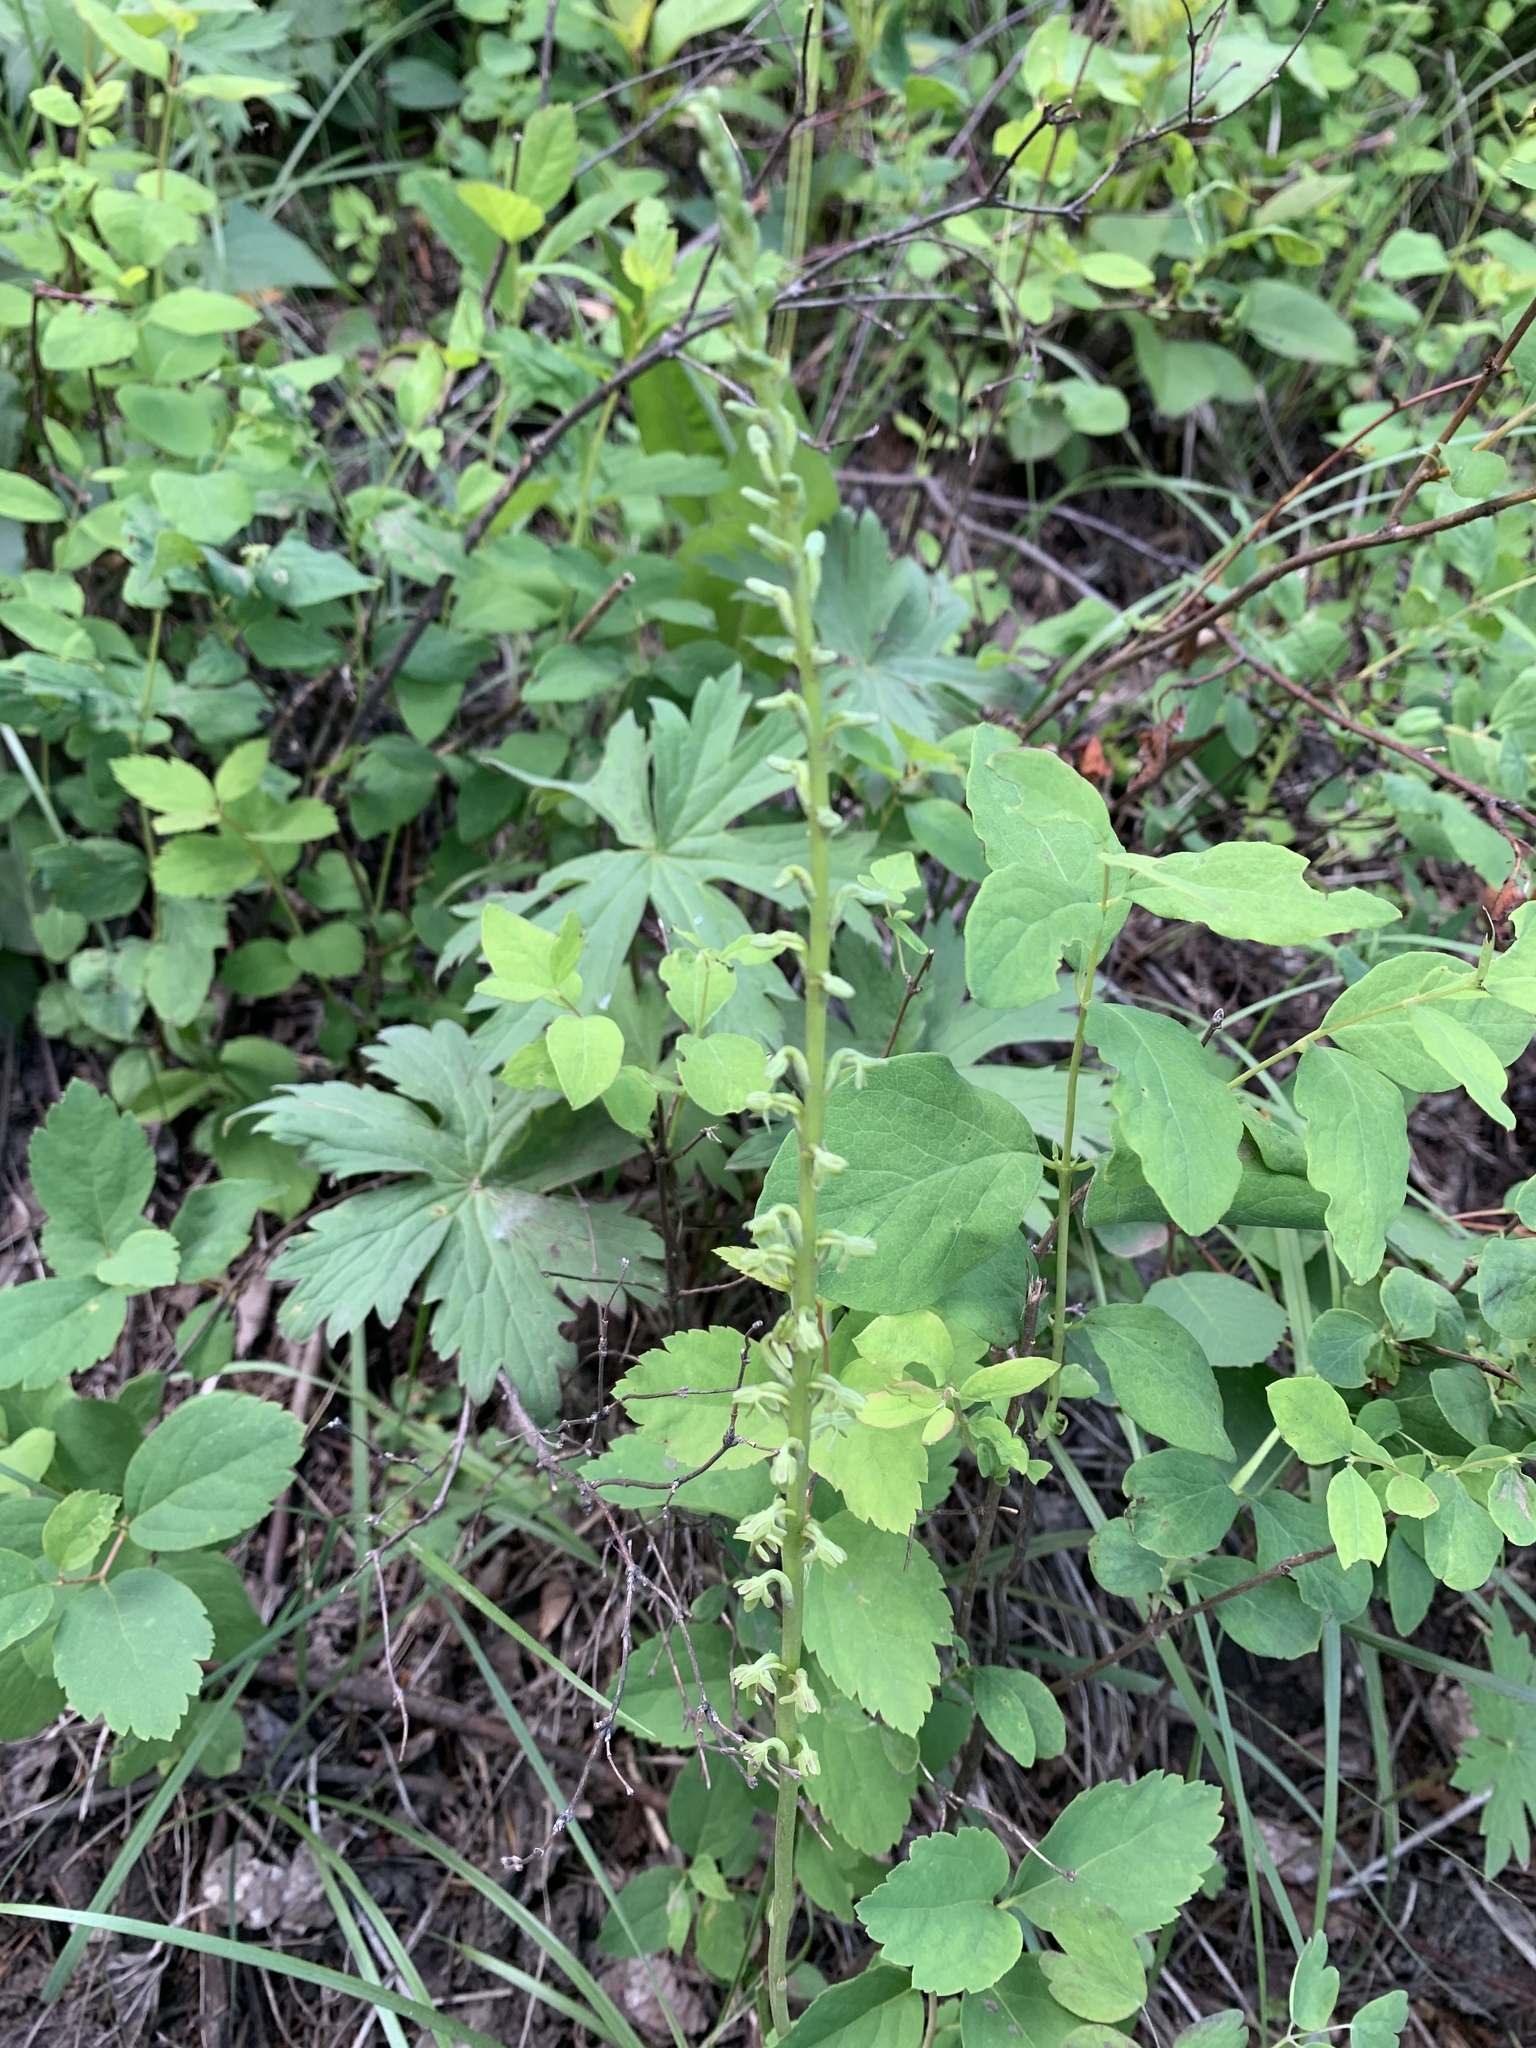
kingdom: Plantae
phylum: Tracheophyta
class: Liliopsida
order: Asparagales
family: Orchidaceae
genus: Platanthera
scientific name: Platanthera unalascensis
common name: Alaska bog orchid
